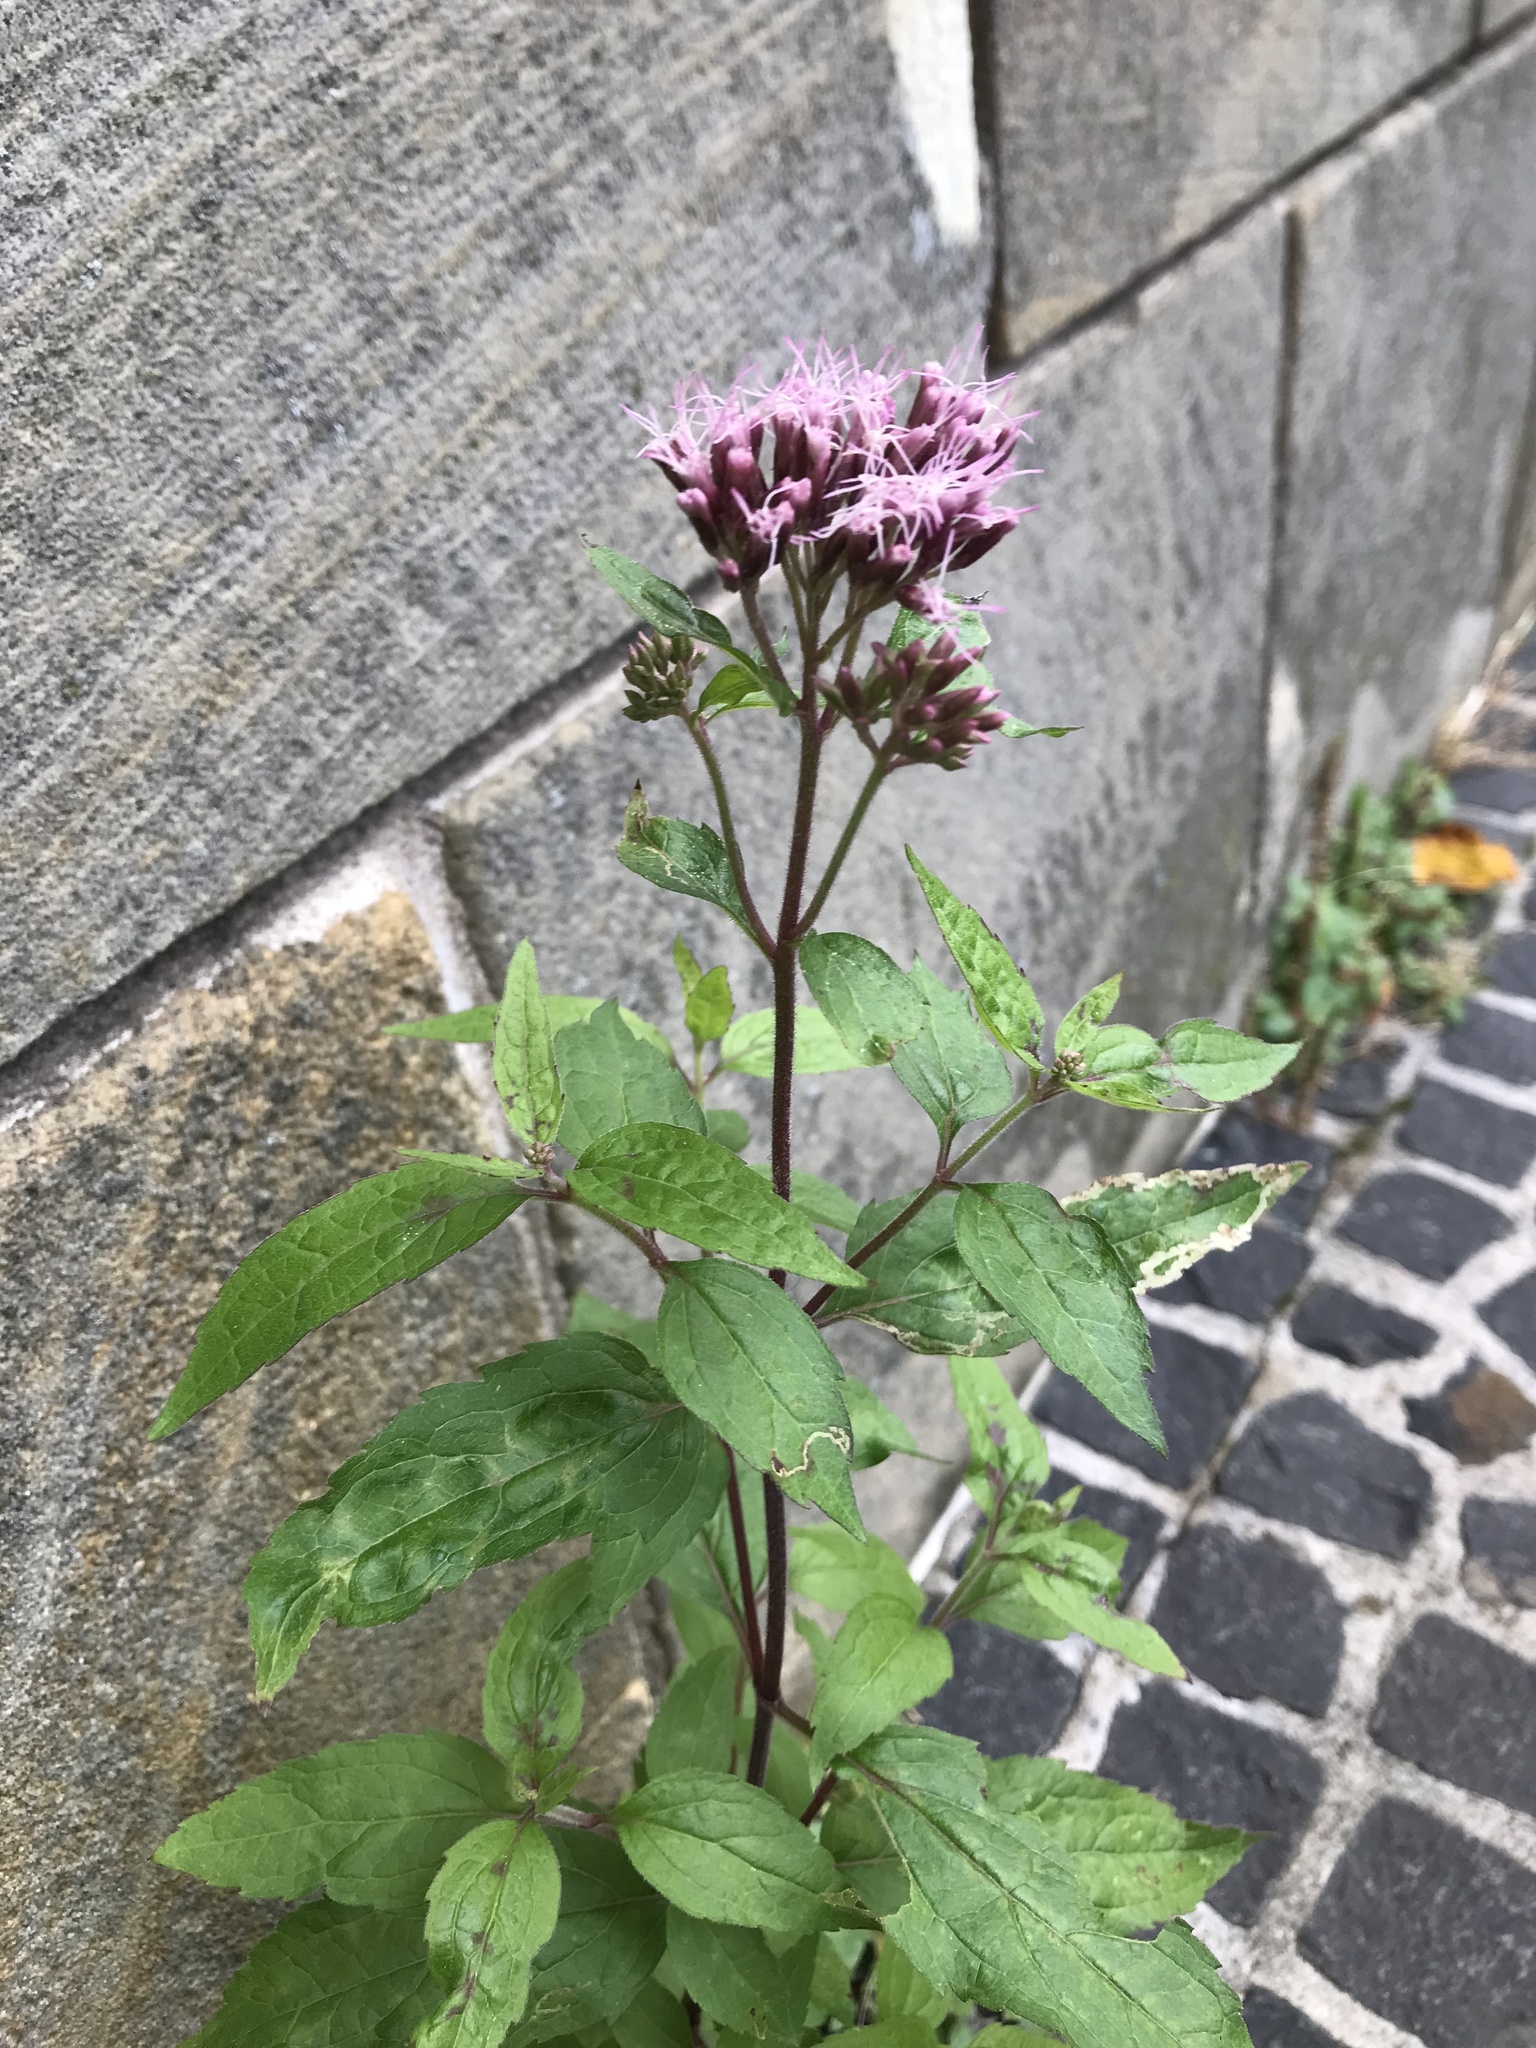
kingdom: Plantae
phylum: Tracheophyta
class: Magnoliopsida
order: Asterales
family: Asteraceae
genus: Eupatorium
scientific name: Eupatorium cannabinum
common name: Hemp-agrimony
